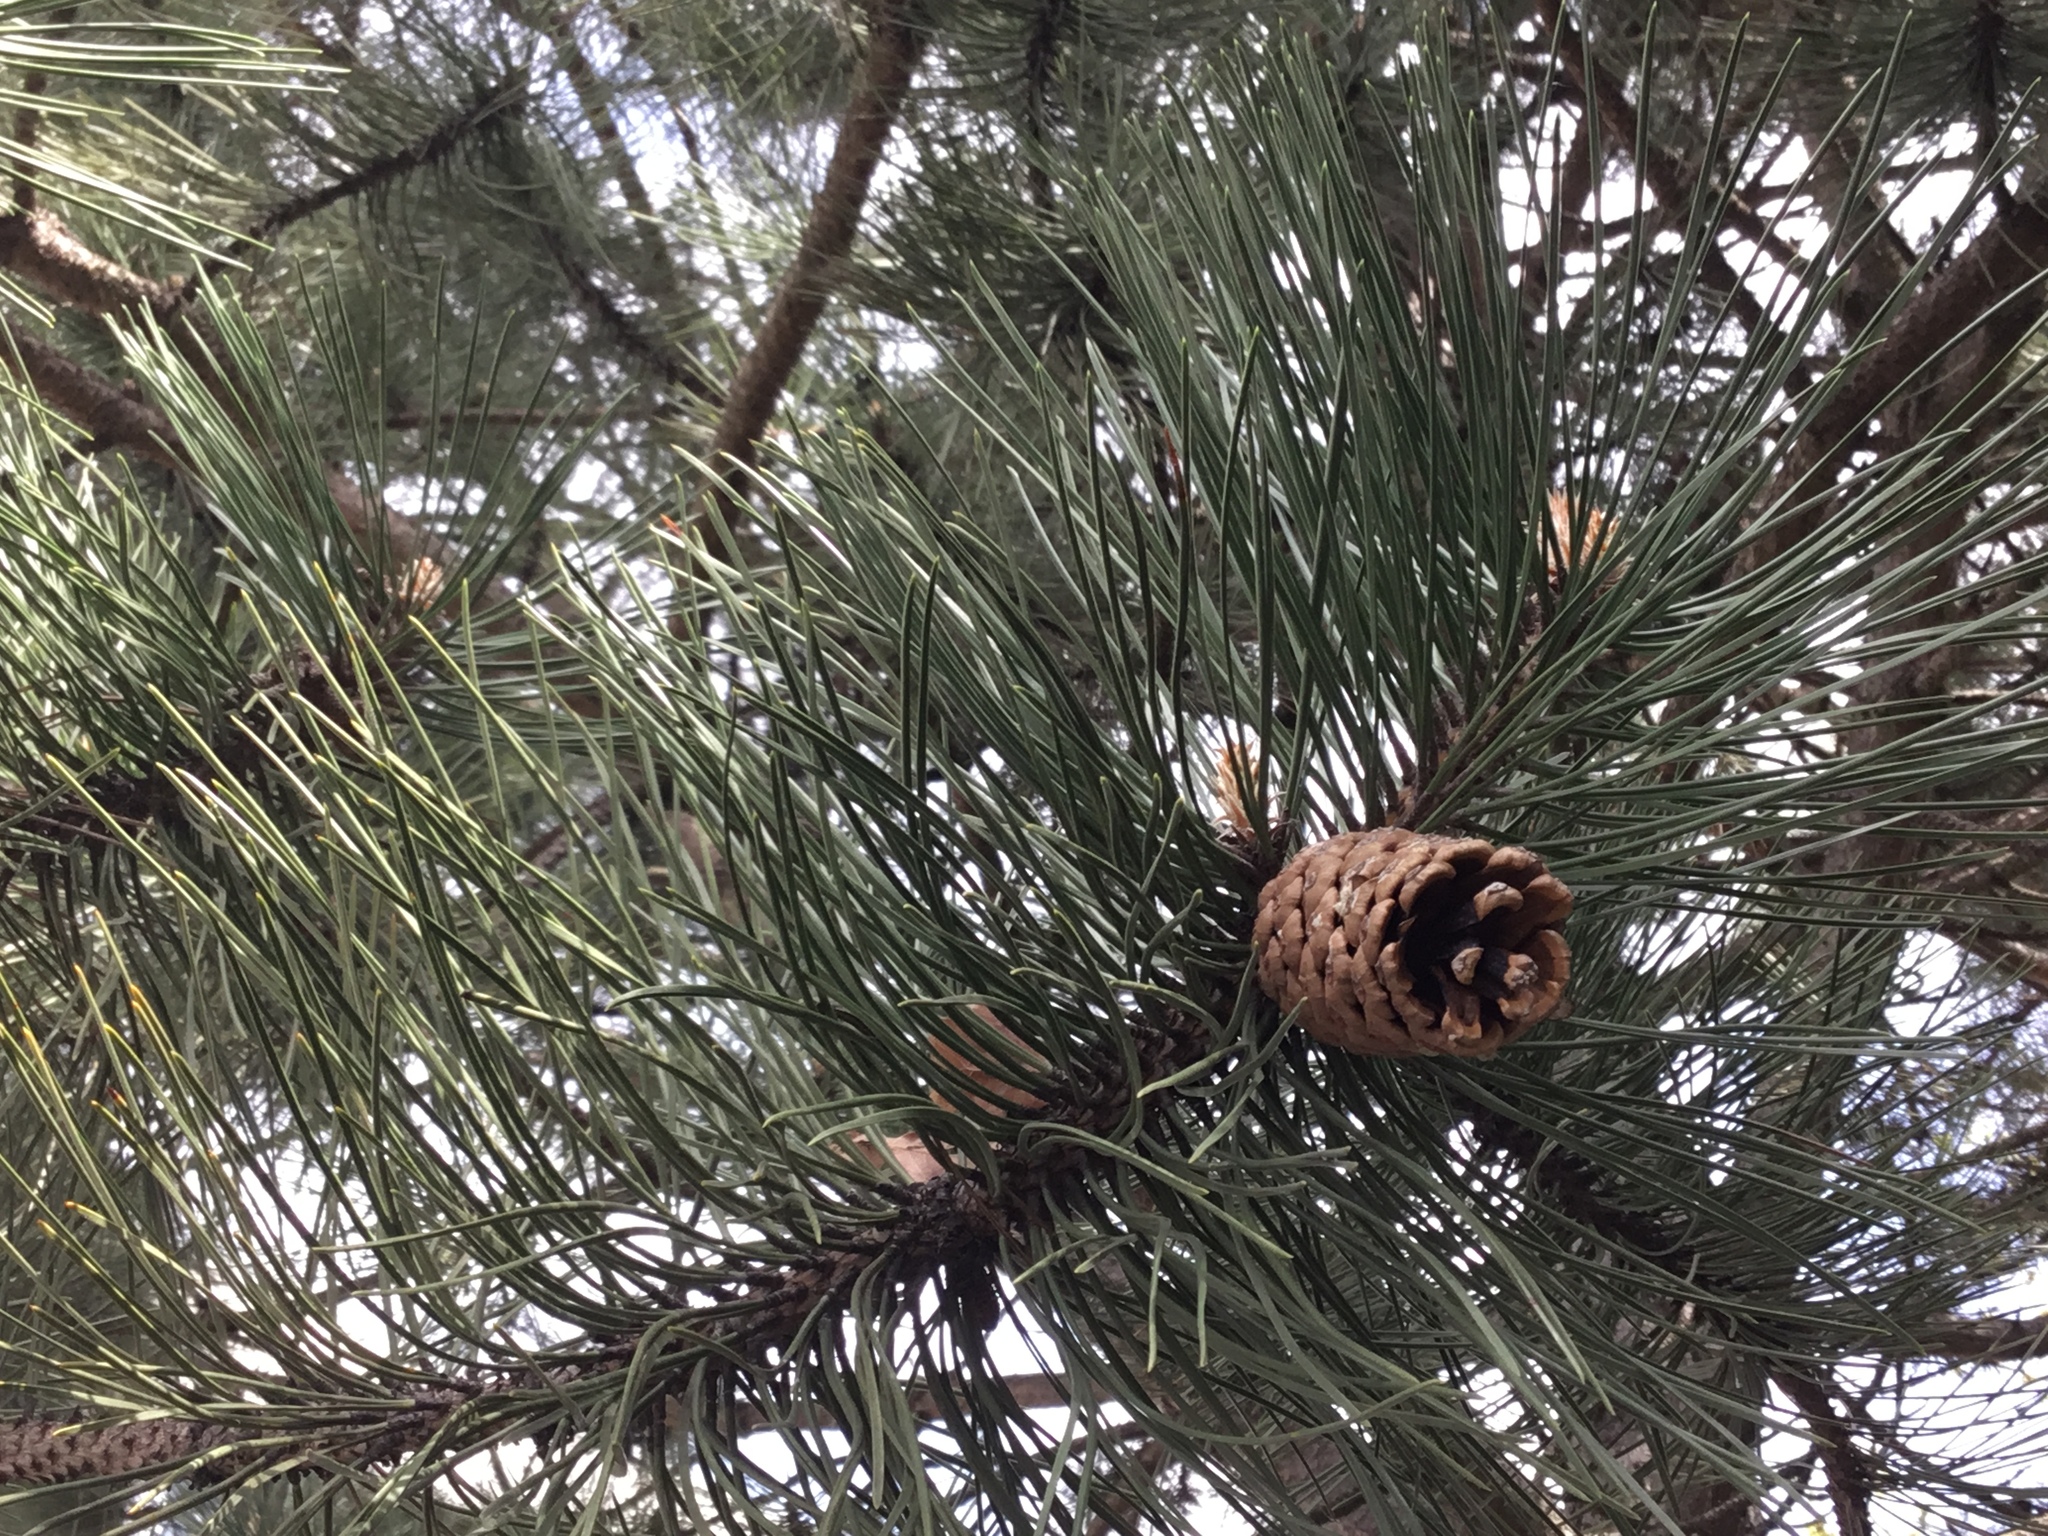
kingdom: Plantae
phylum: Tracheophyta
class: Pinopsida
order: Pinales
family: Pinaceae
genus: Pinus
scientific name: Pinus nigra
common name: Austrian pine
